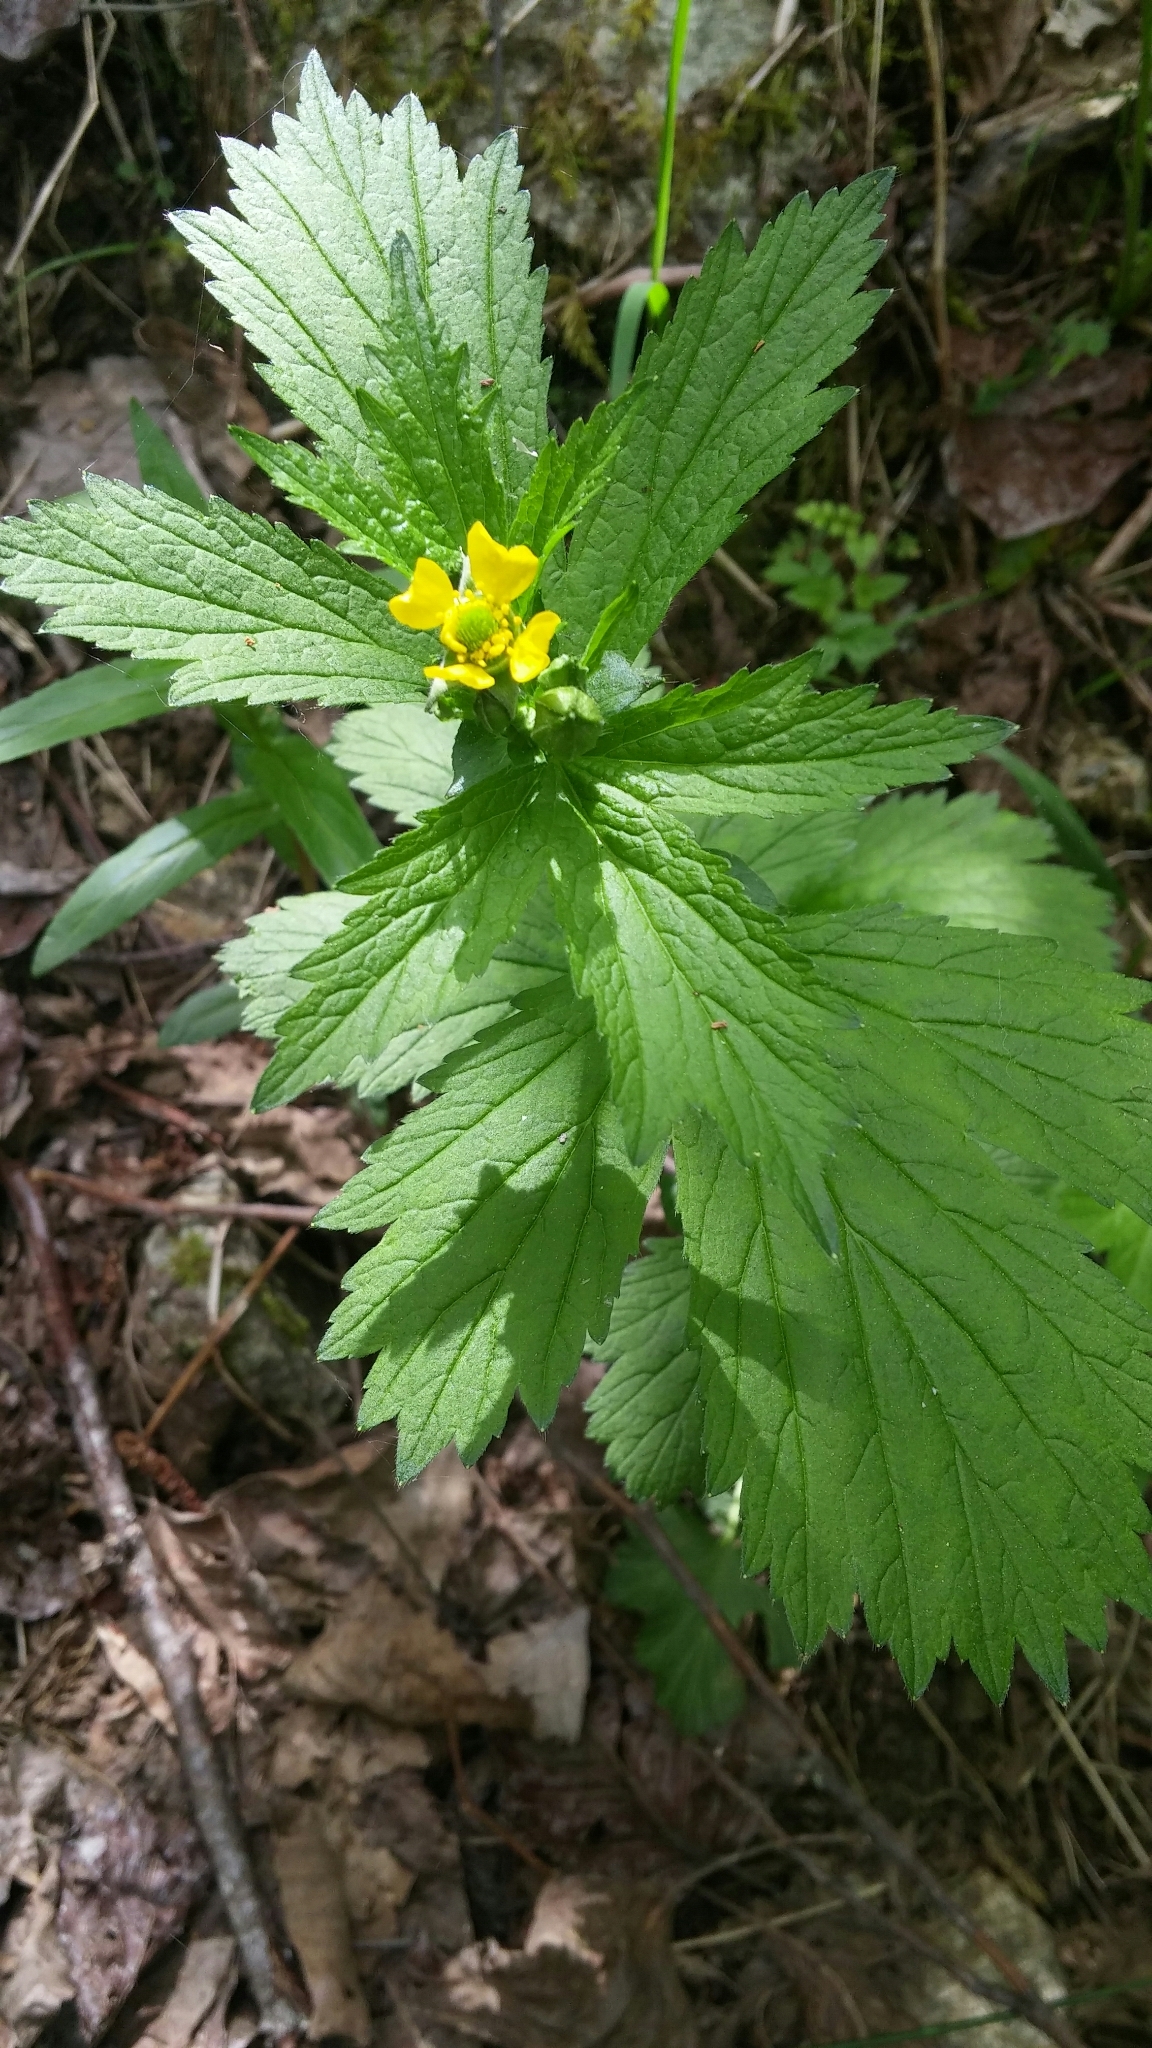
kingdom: Plantae
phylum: Tracheophyta
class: Magnoliopsida
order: Rosales
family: Rosaceae
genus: Geum
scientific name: Geum macrophyllum
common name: Large-leaved avens
